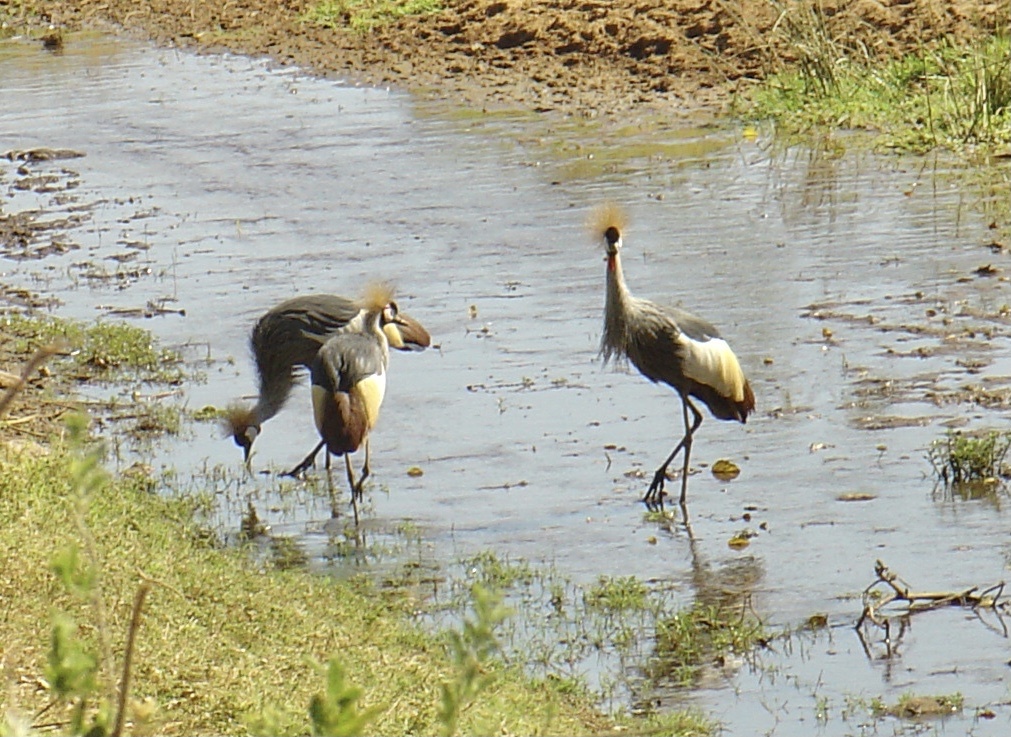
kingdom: Animalia
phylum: Chordata
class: Aves
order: Gruiformes
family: Gruidae
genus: Balearica
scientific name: Balearica regulorum
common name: Grey crowned crane
